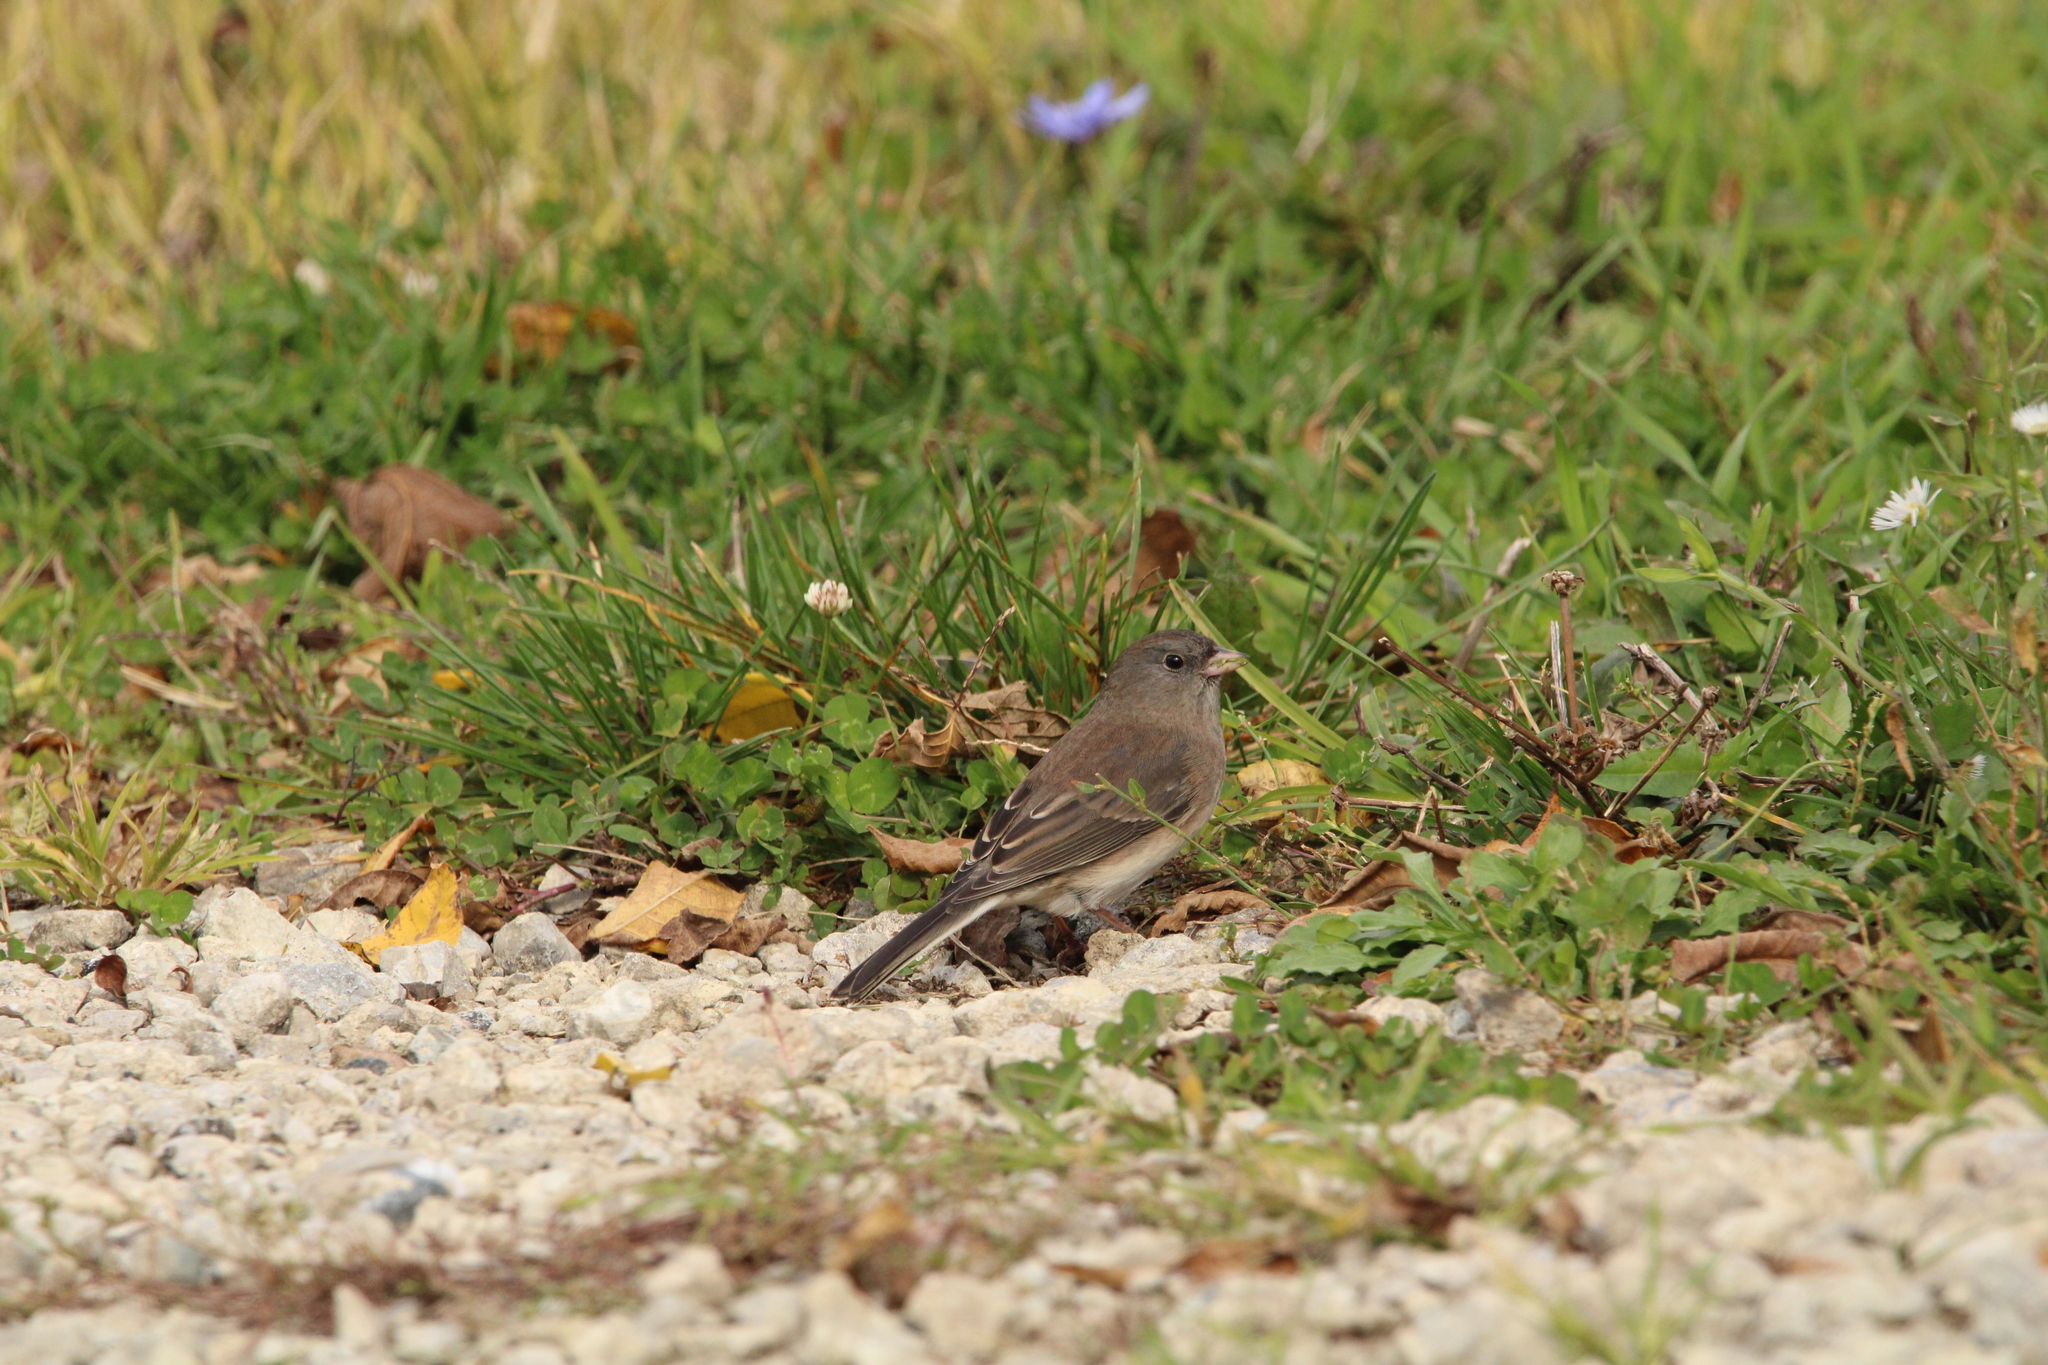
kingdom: Animalia
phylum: Chordata
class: Aves
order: Passeriformes
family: Passerellidae
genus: Junco
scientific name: Junco hyemalis
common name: Dark-eyed junco
